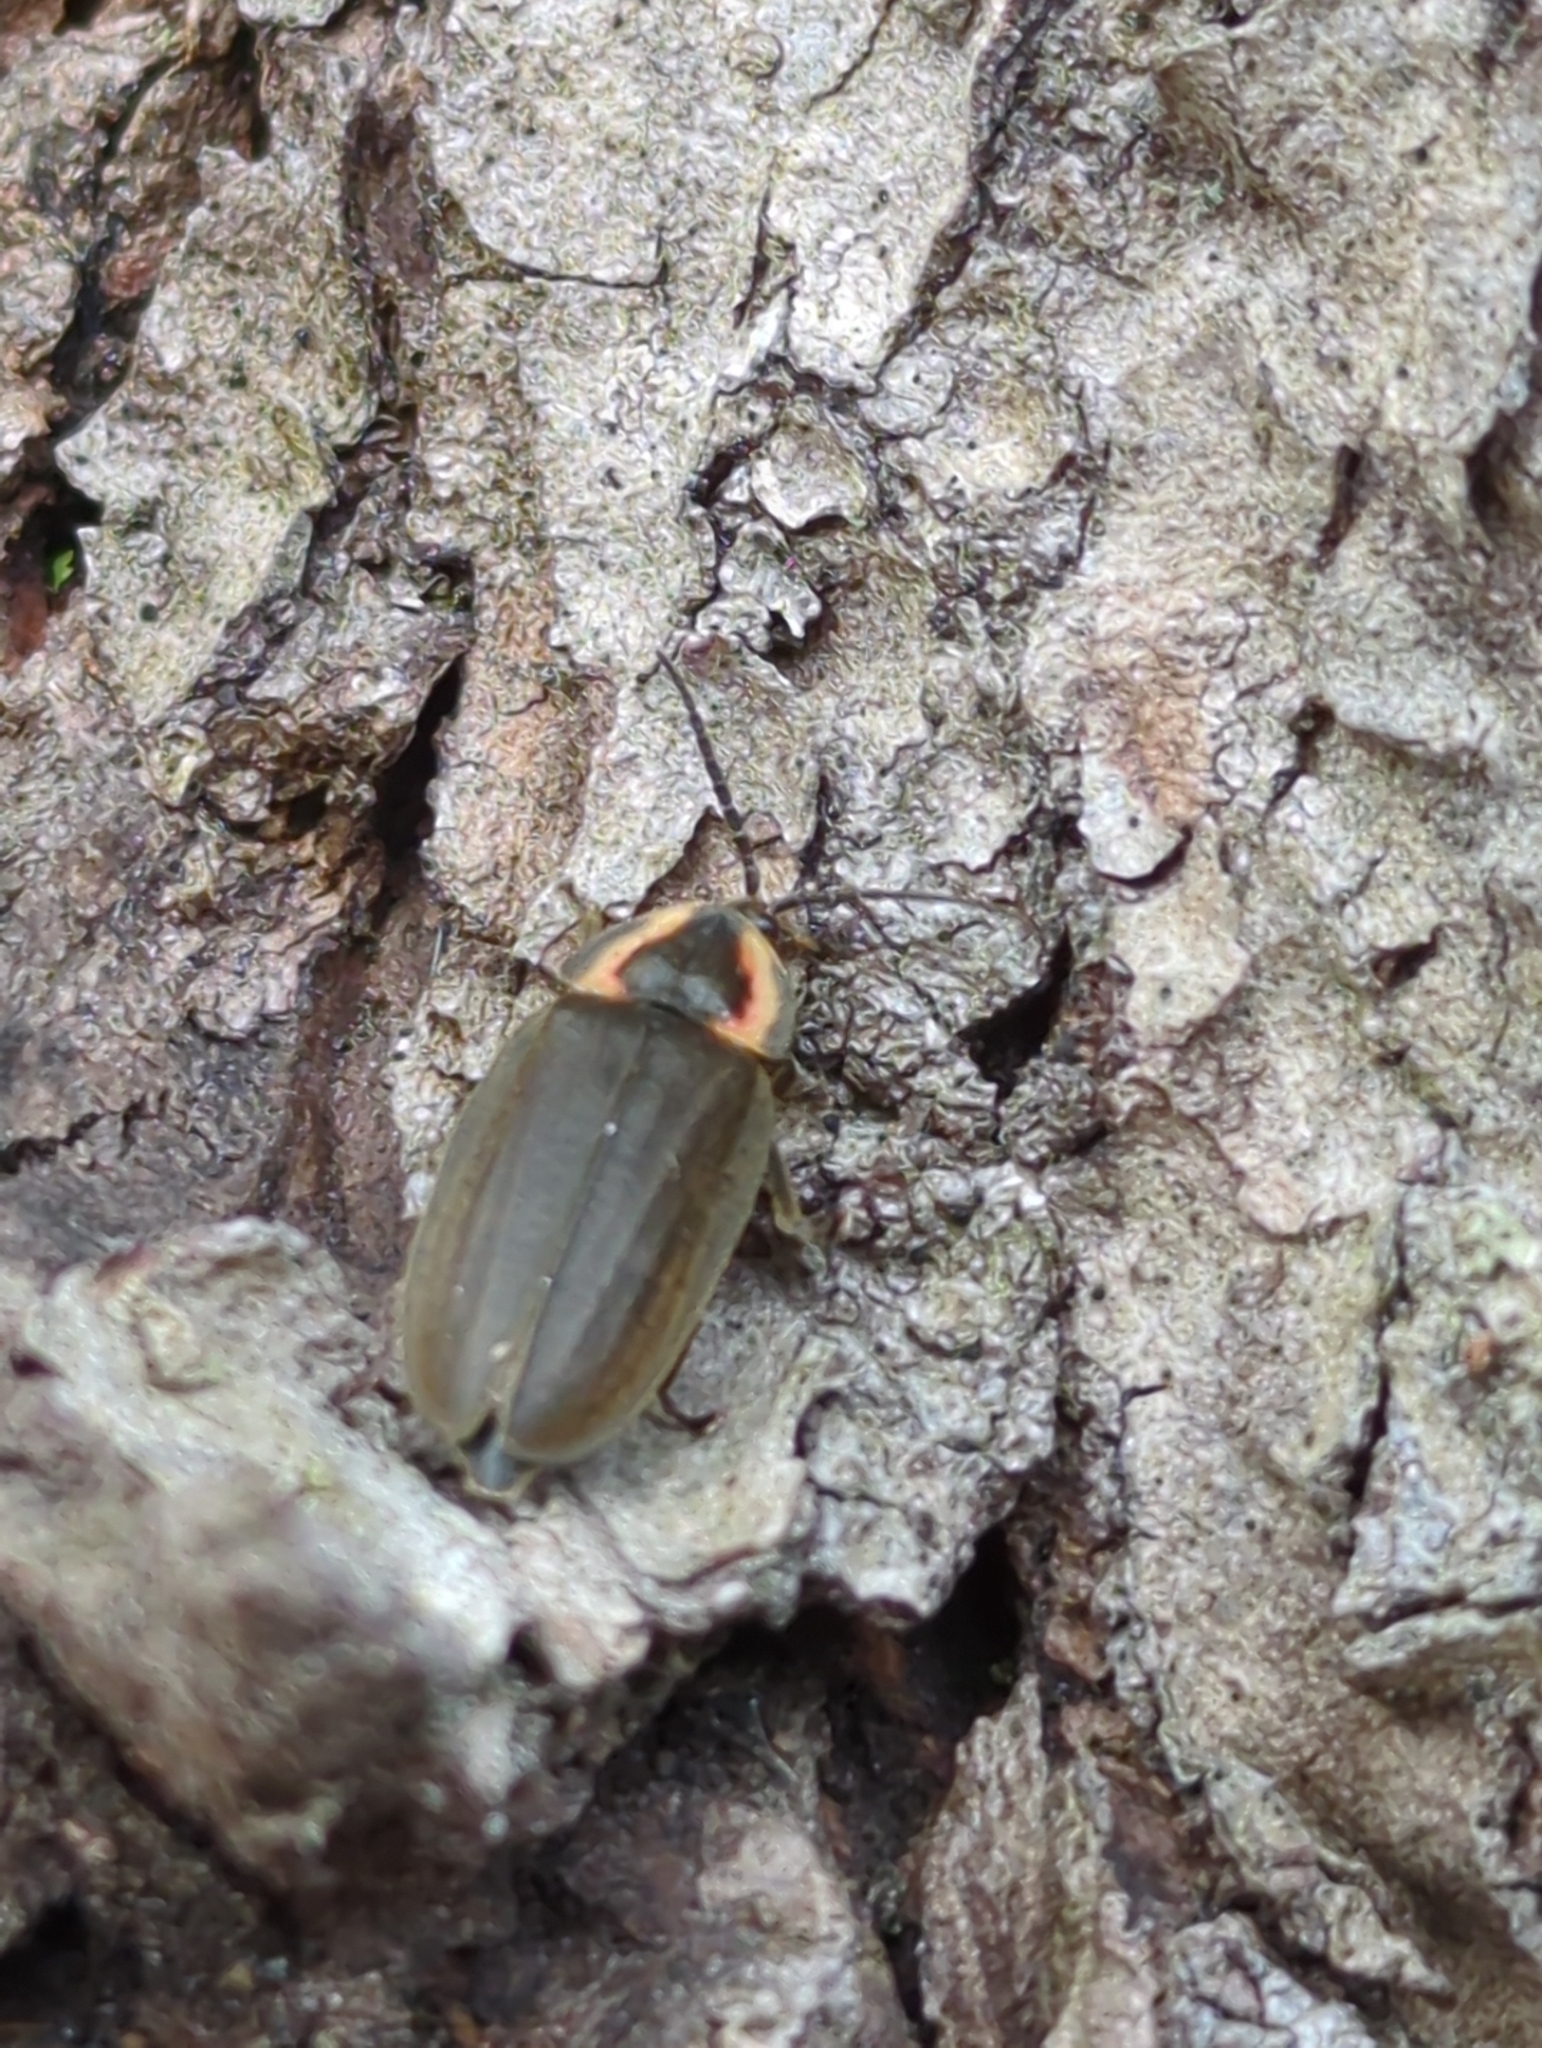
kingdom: Animalia
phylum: Arthropoda
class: Insecta
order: Coleoptera
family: Lampyridae
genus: Photinus
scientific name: Photinus corrusca
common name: Winter firefly
